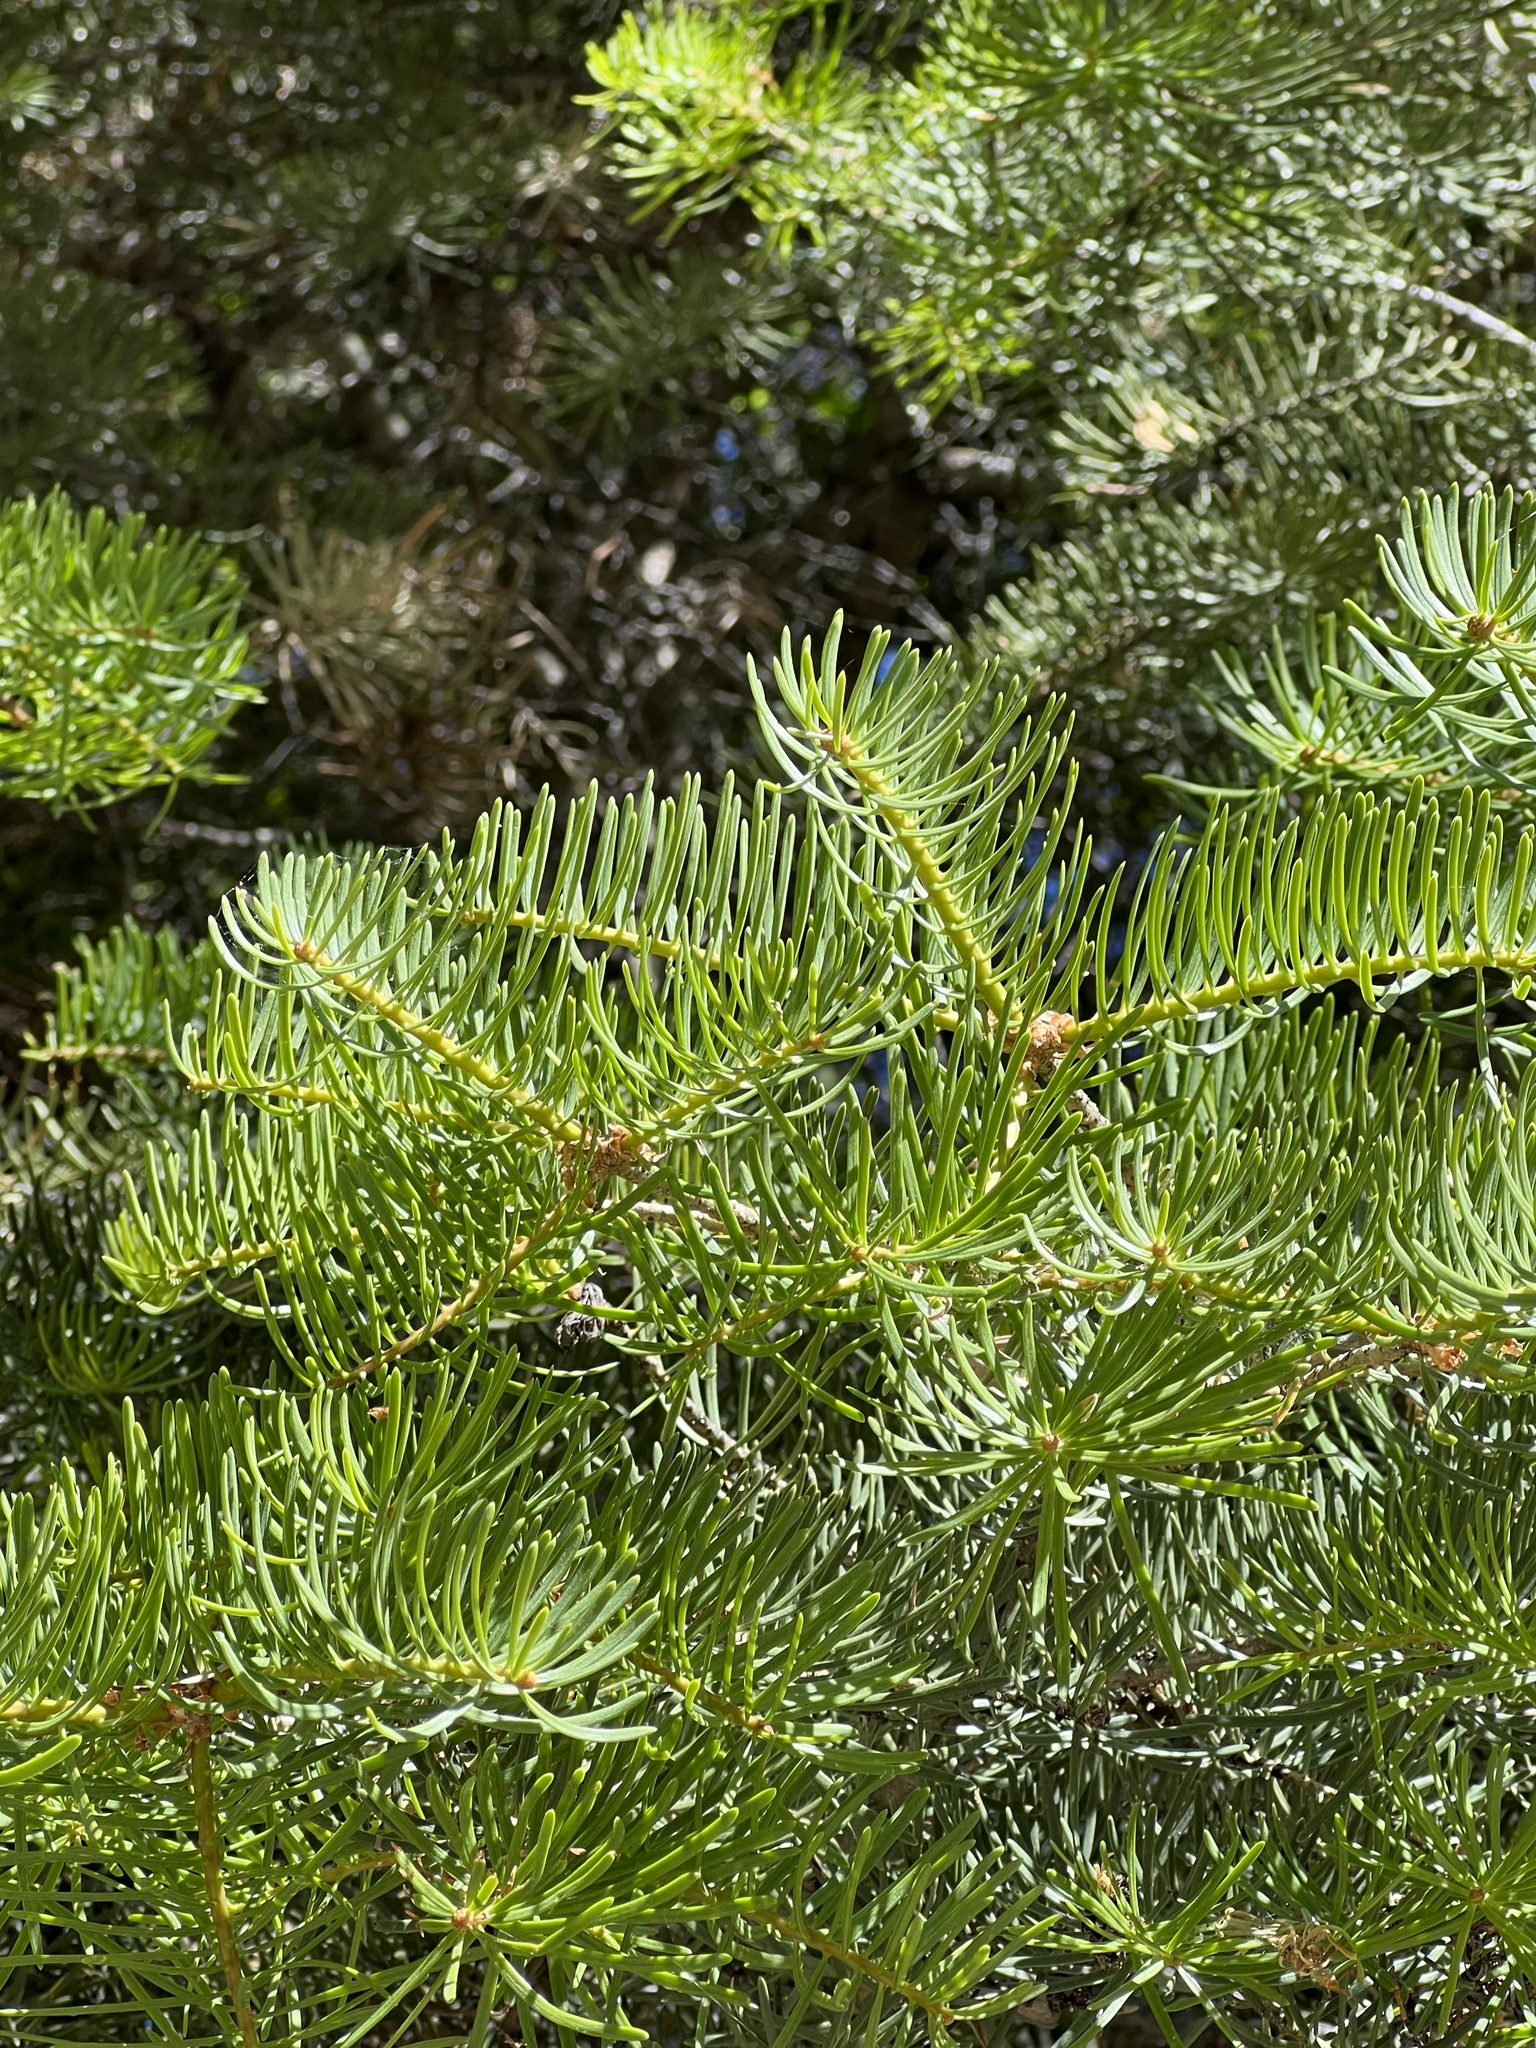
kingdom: Plantae
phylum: Tracheophyta
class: Pinopsida
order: Pinales
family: Pinaceae
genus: Abies
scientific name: Abies concolor
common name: Colorado fir
